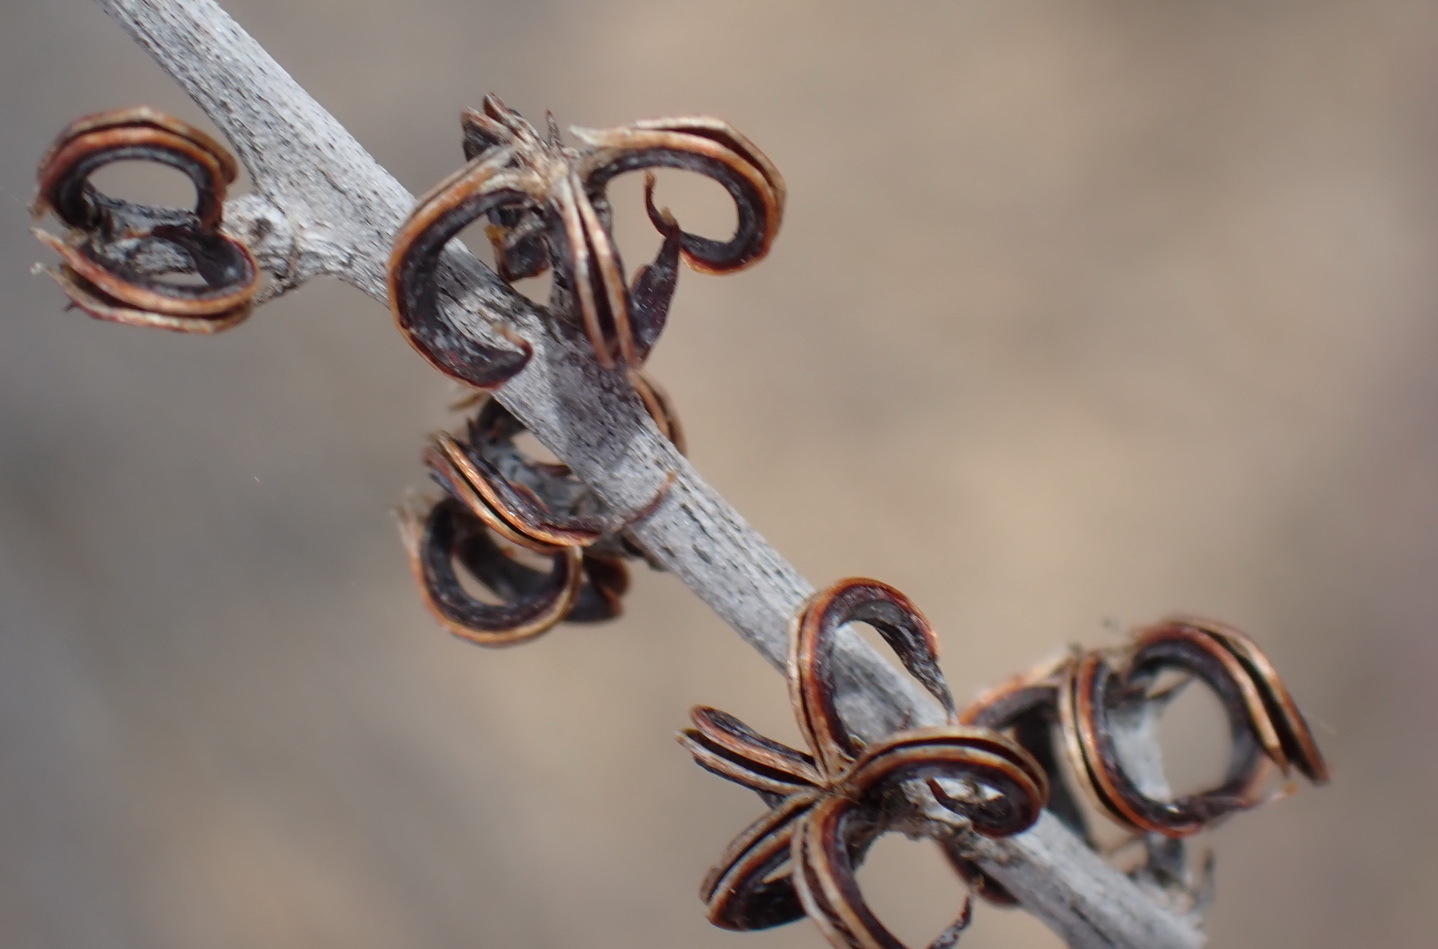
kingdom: Plantae
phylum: Tracheophyta
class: Magnoliopsida
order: Saxifragales
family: Crassulaceae
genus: Adromischus
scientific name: Adromischus triflorus
